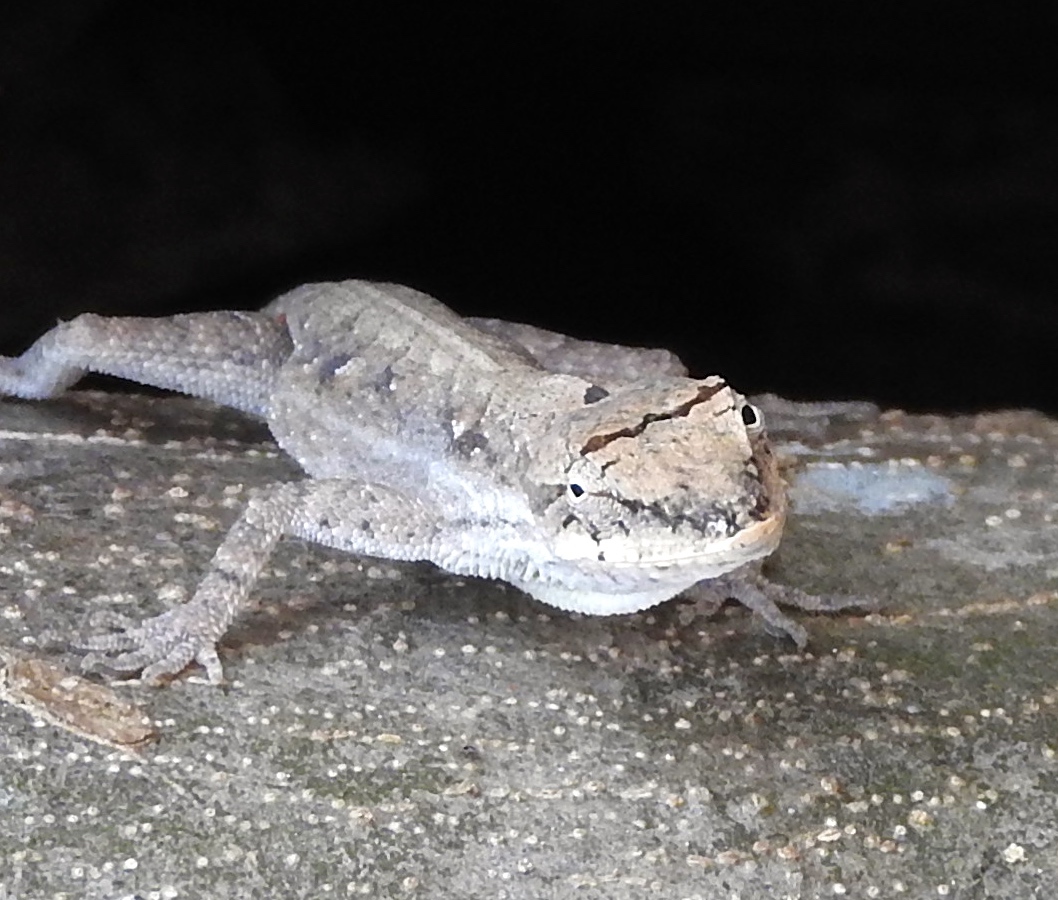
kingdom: Animalia
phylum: Chordata
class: Squamata
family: Dactyloidae
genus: Anolis
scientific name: Anolis nebulosus
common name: Clouded anole
